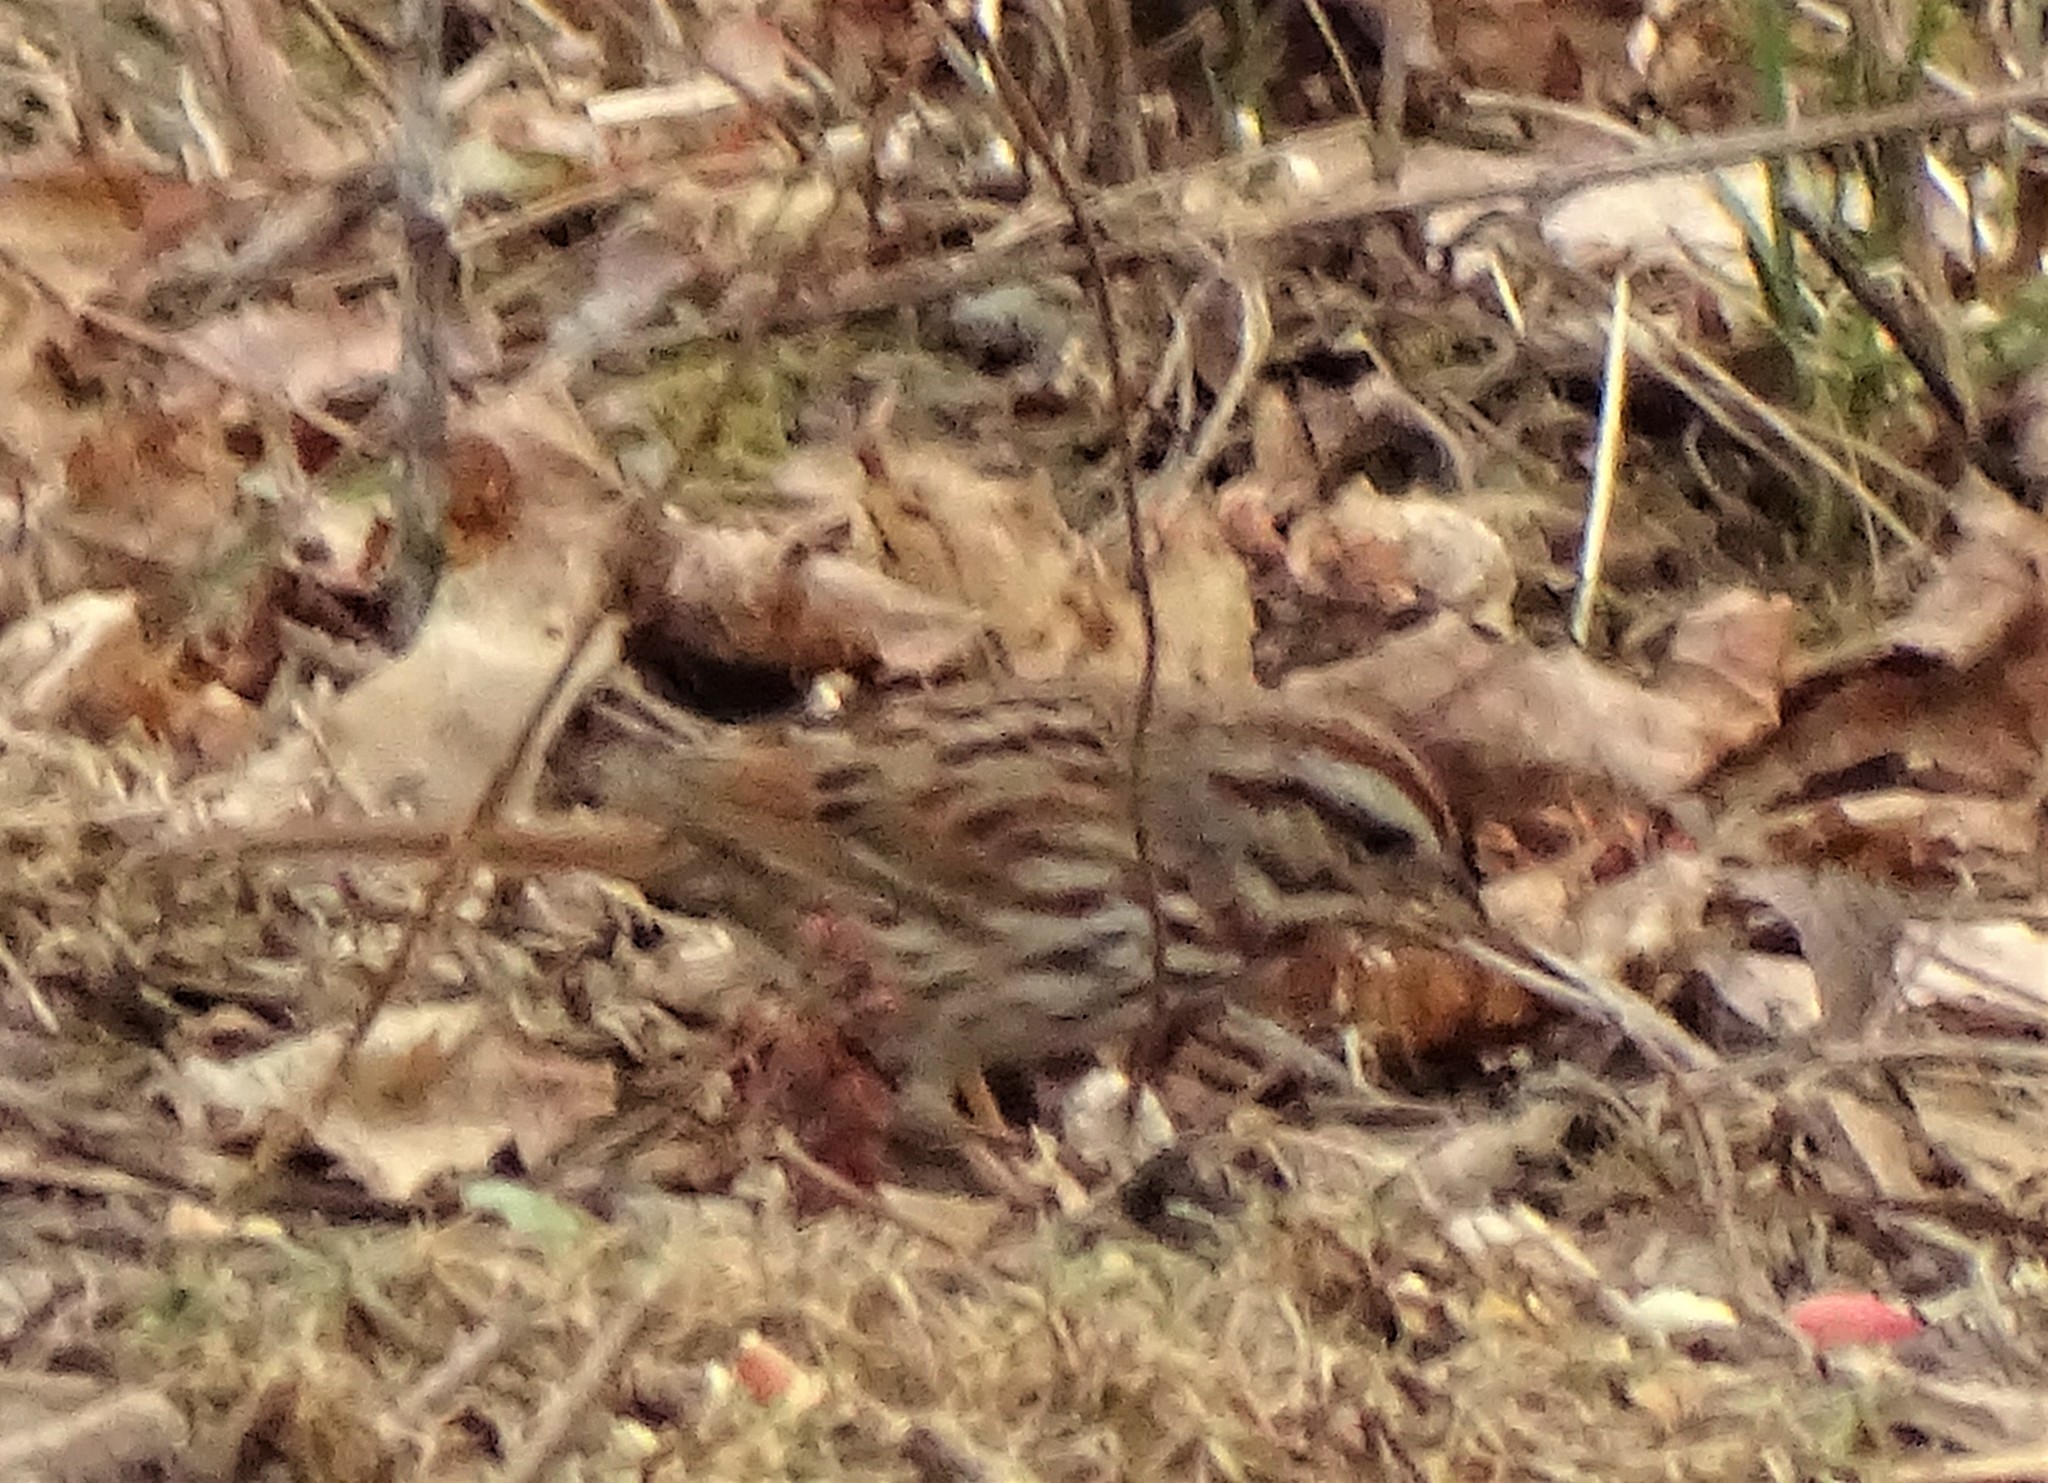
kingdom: Animalia
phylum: Chordata
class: Aves
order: Passeriformes
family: Passerellidae
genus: Melospiza
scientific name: Melospiza melodia
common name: Song sparrow
